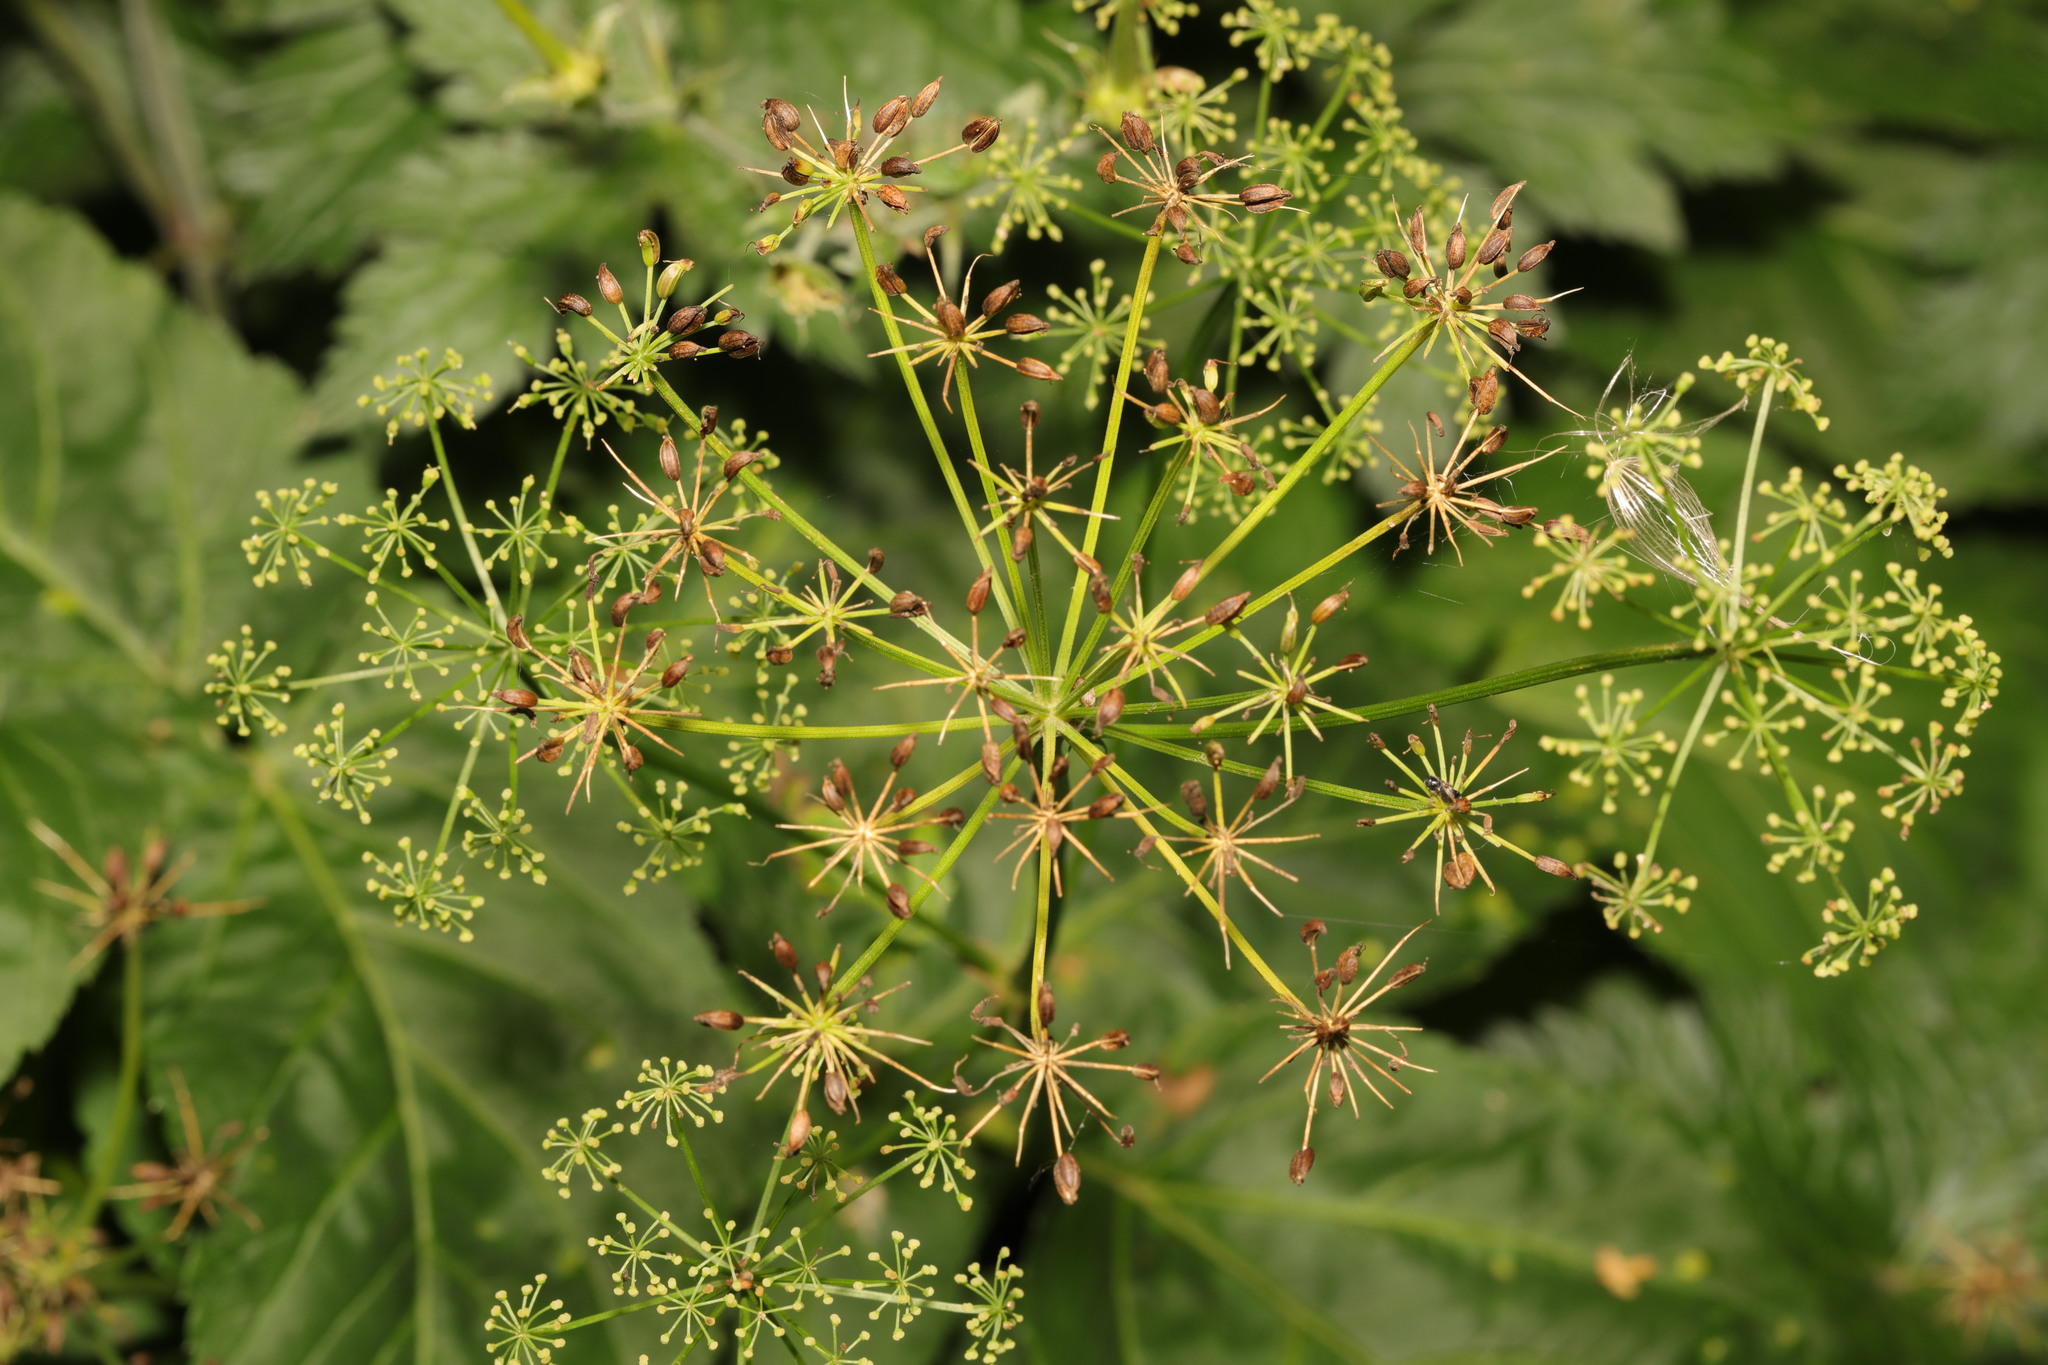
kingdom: Plantae
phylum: Tracheophyta
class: Magnoliopsida
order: Apiales
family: Apiaceae
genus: Aegopodium
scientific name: Aegopodium podagraria
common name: Ground-elder
